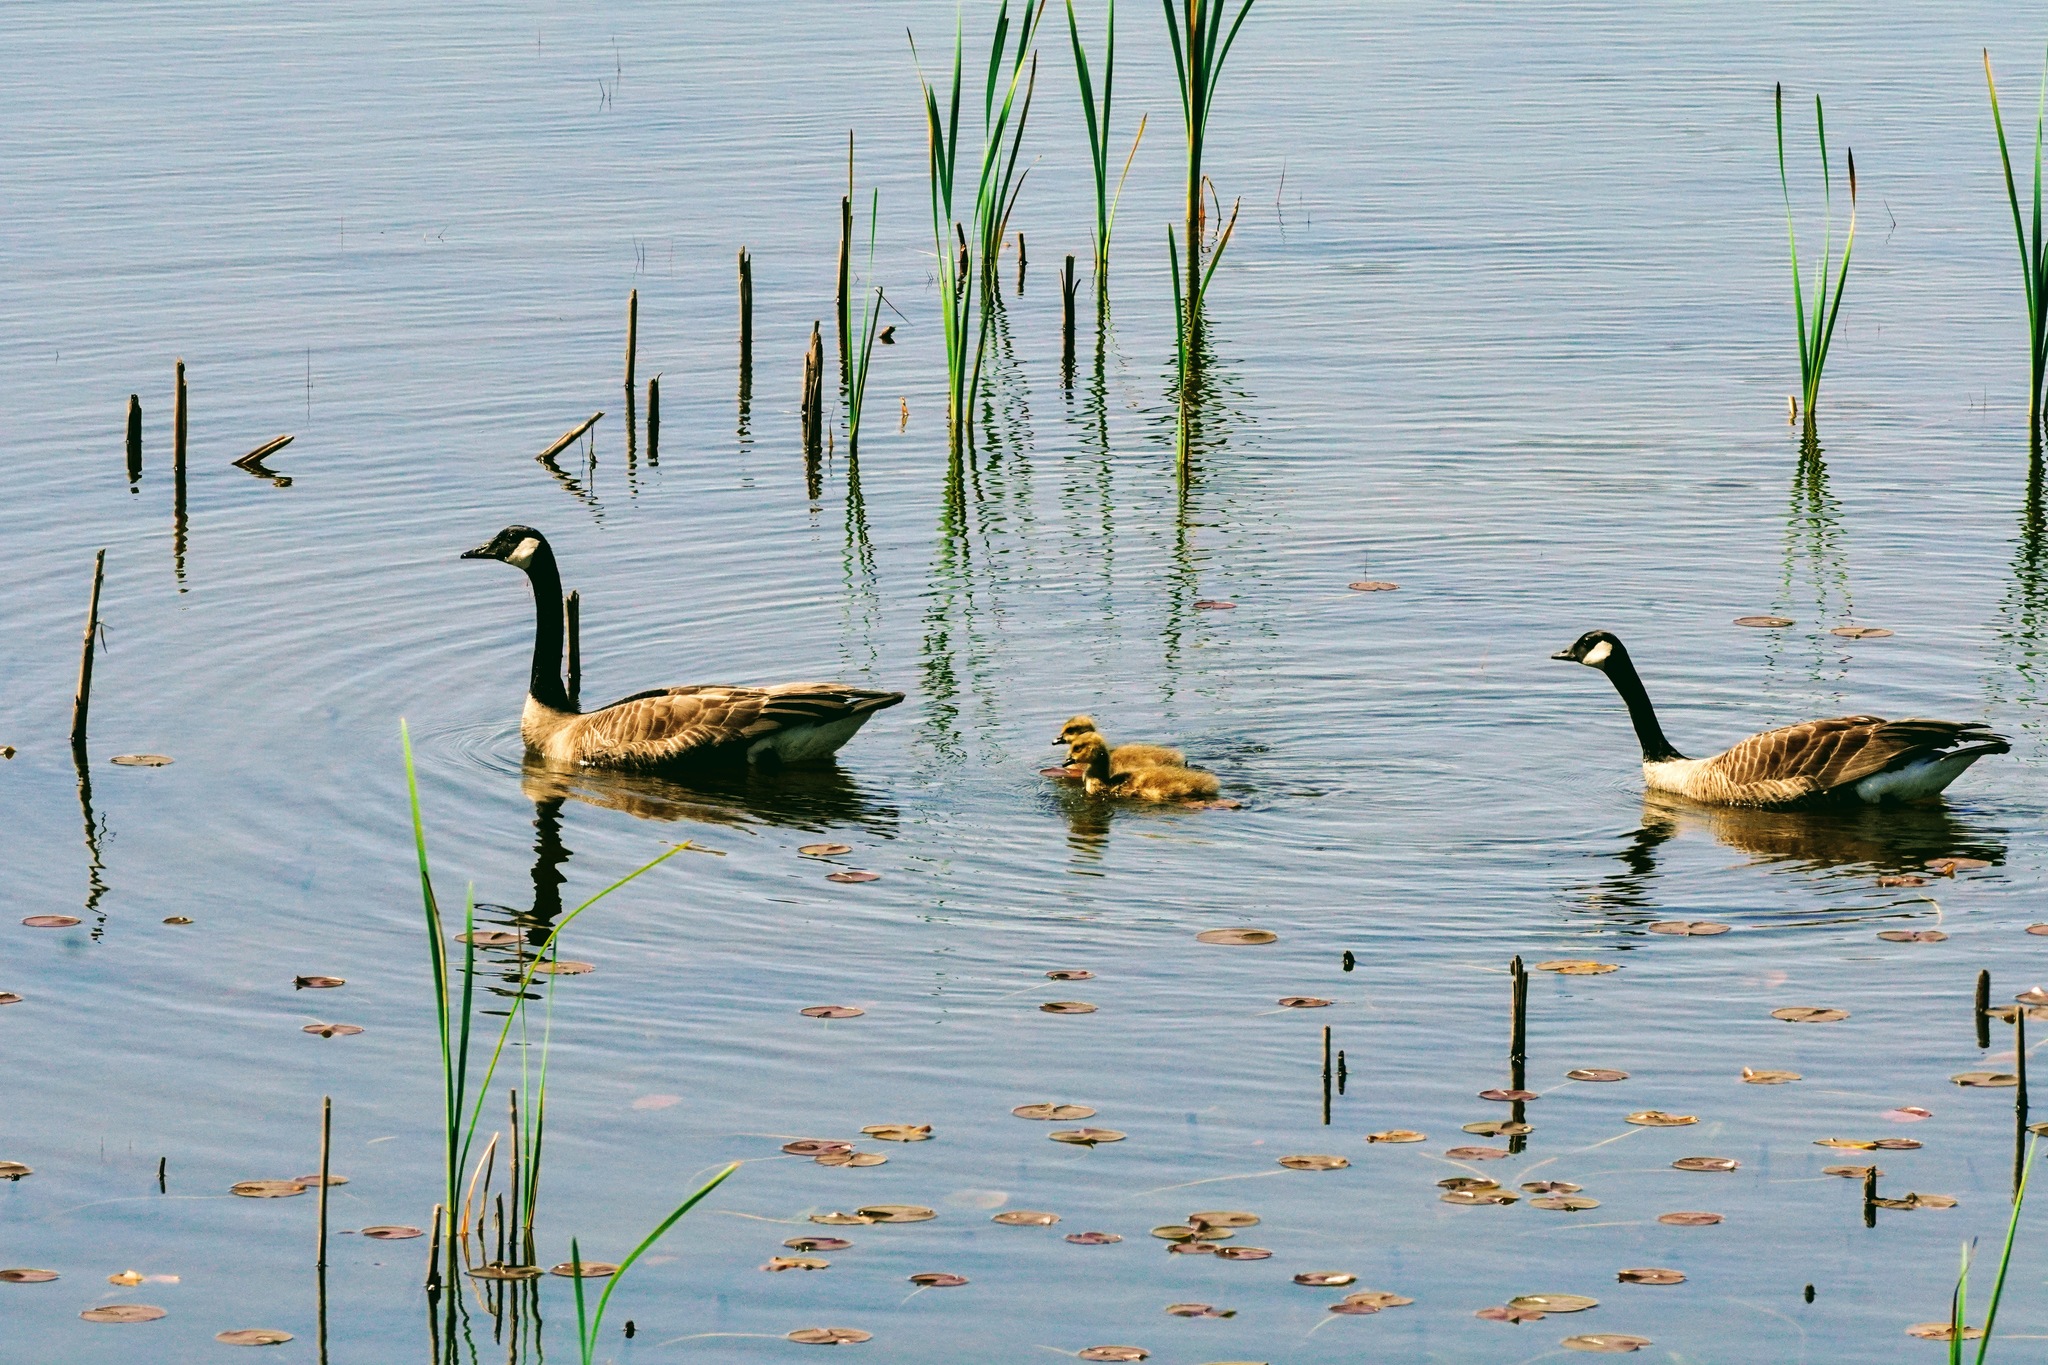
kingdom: Animalia
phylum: Chordata
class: Aves
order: Anseriformes
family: Anatidae
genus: Branta
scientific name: Branta canadensis
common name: Canada goose
